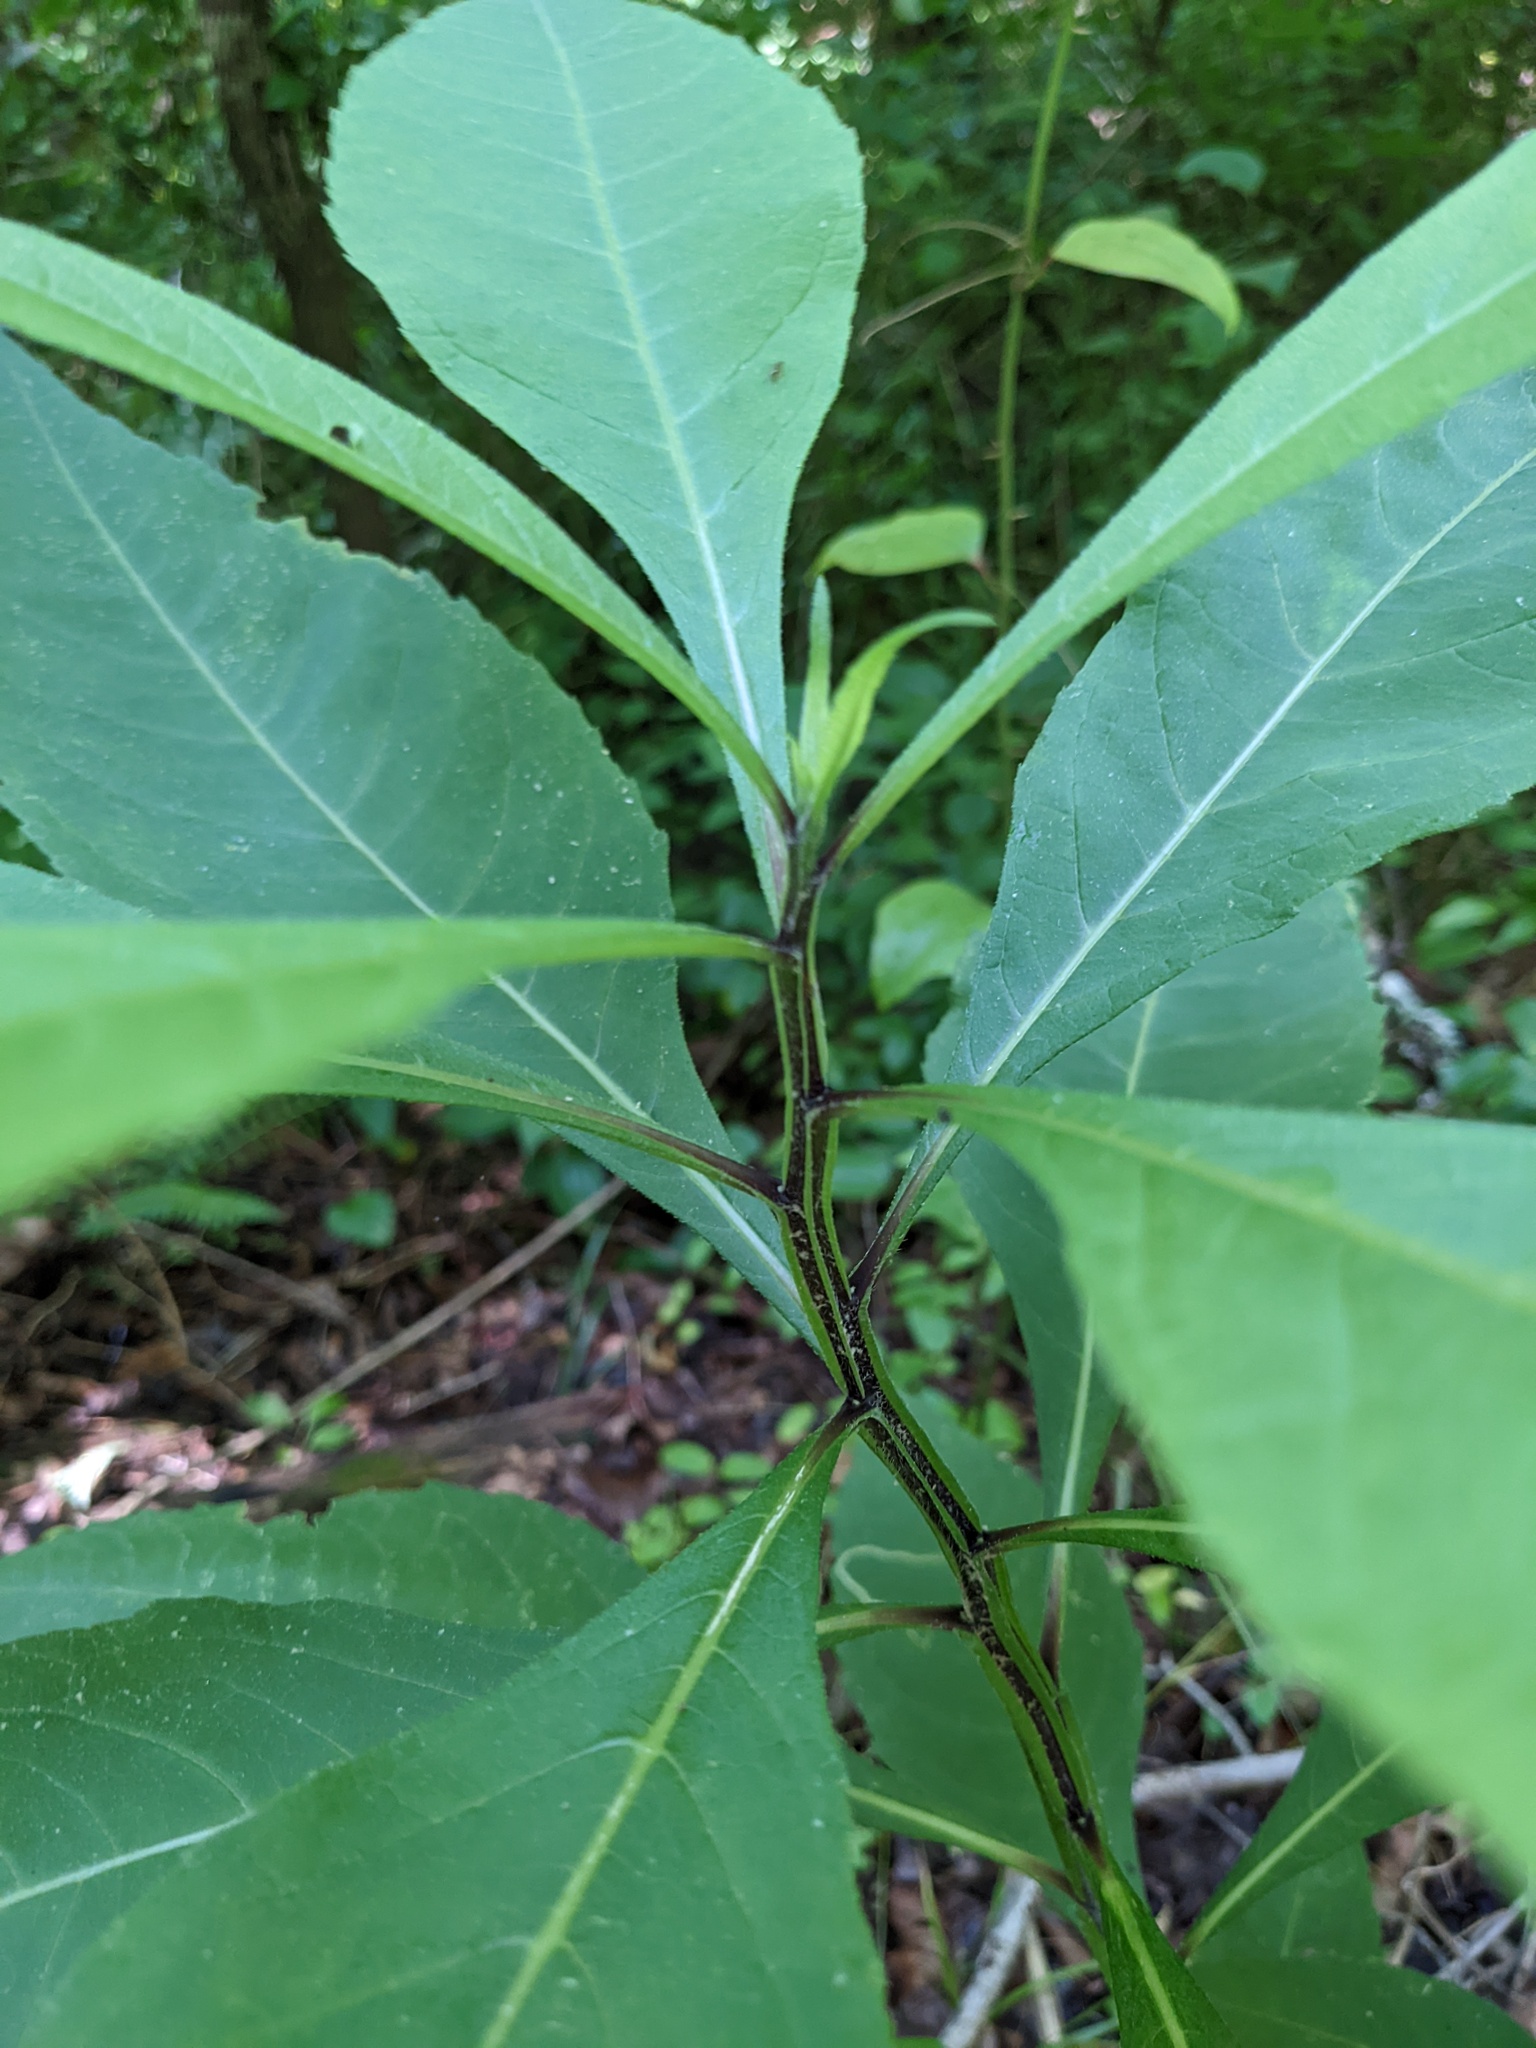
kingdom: Plantae
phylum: Tracheophyta
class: Magnoliopsida
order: Asterales
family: Asteraceae
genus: Verbesina
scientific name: Verbesina alternifolia
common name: Wingstem
